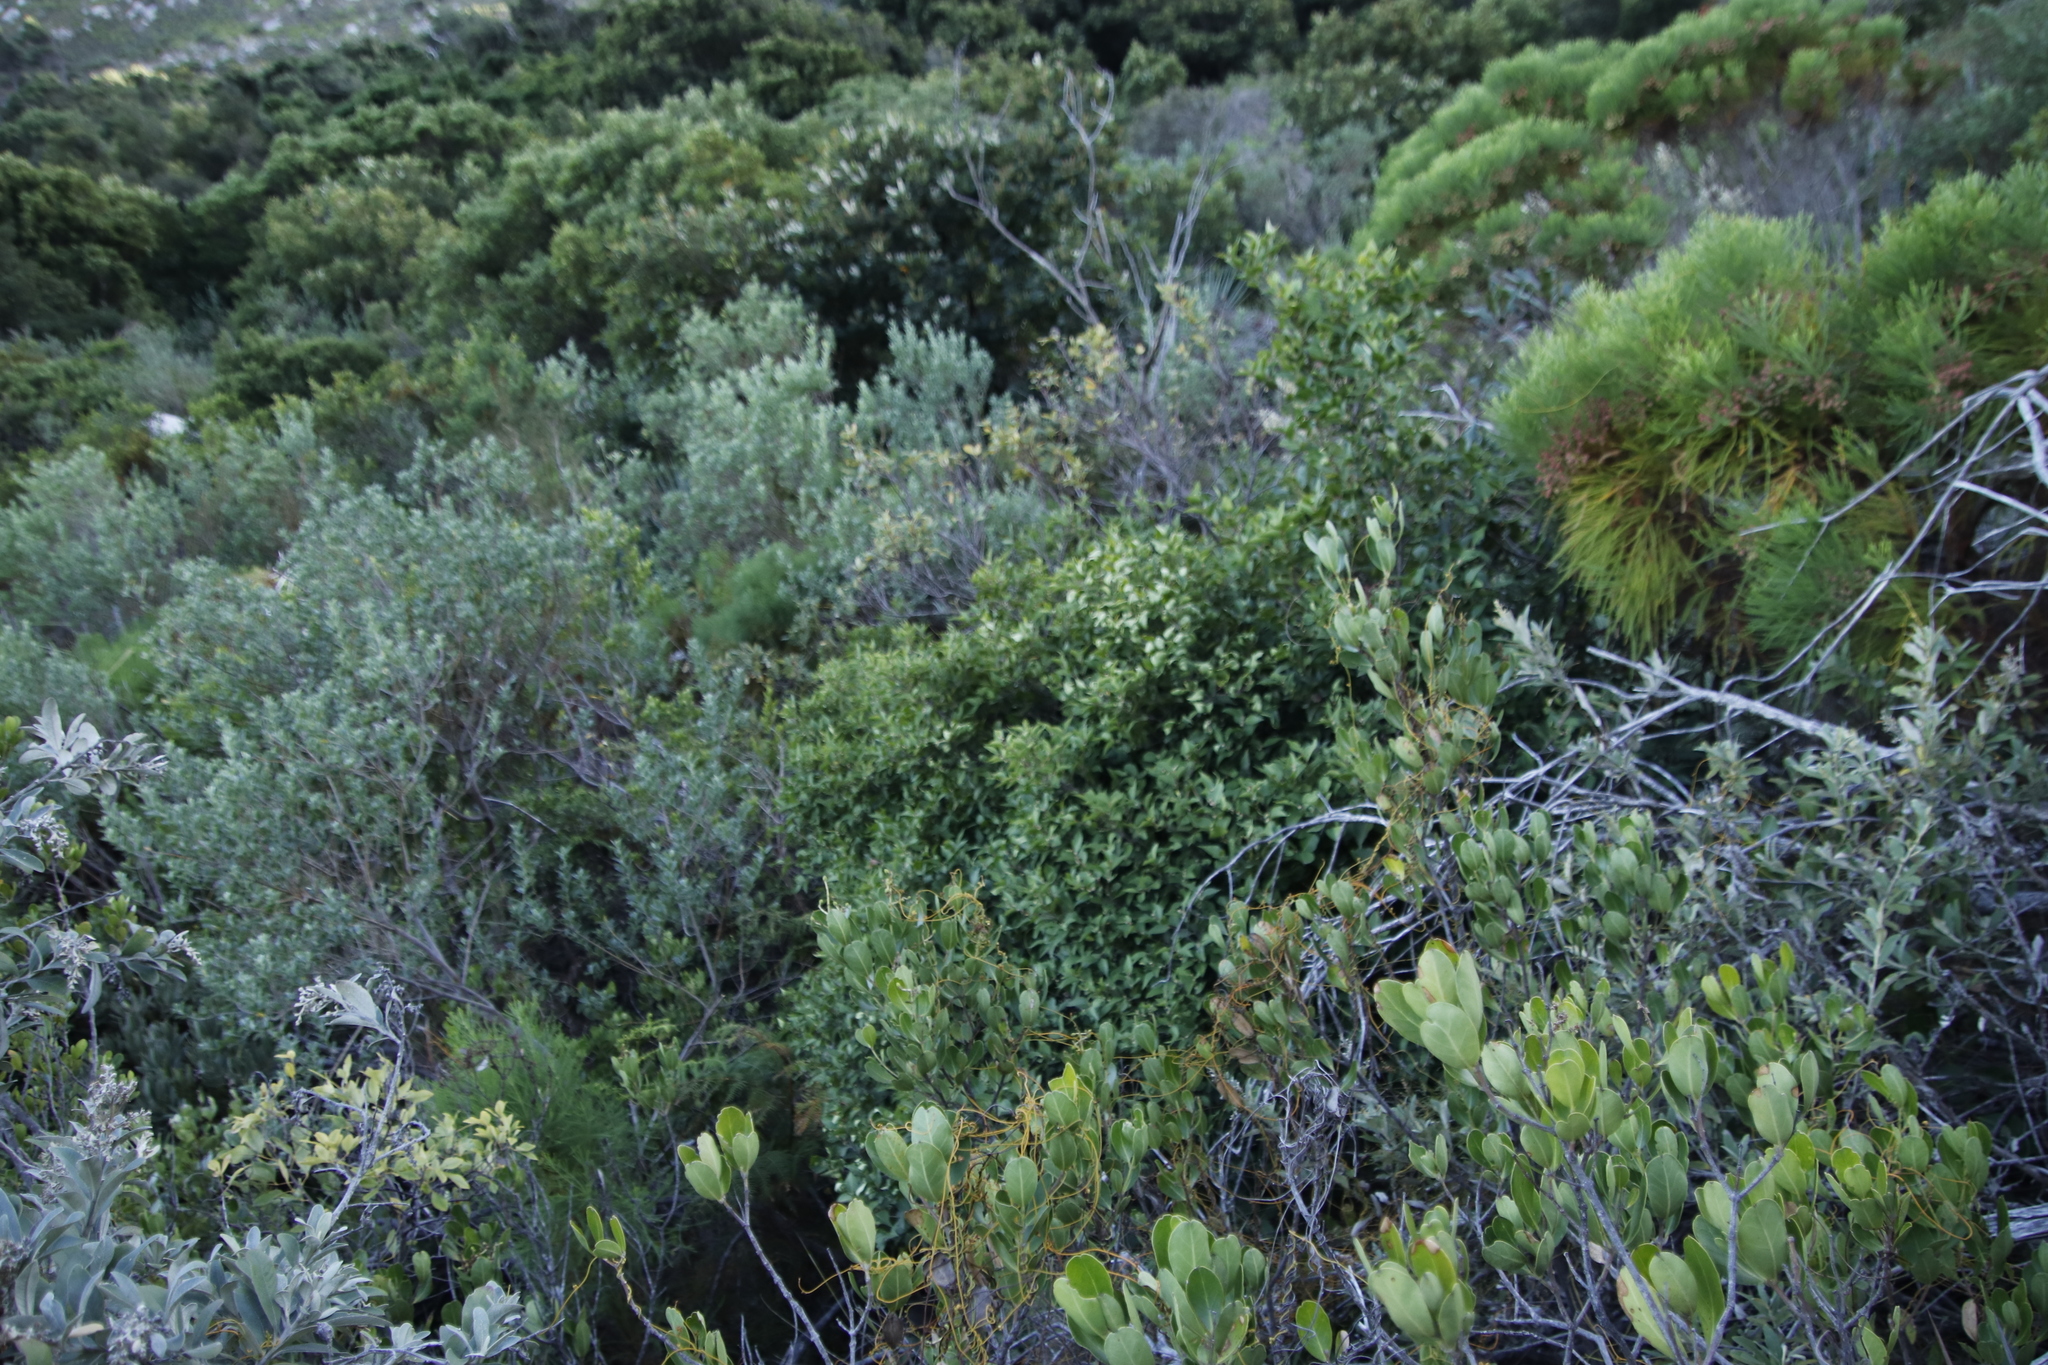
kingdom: Plantae
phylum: Tracheophyta
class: Magnoliopsida
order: Celastrales
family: Celastraceae
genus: Gymnosporia
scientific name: Gymnosporia acuminata
